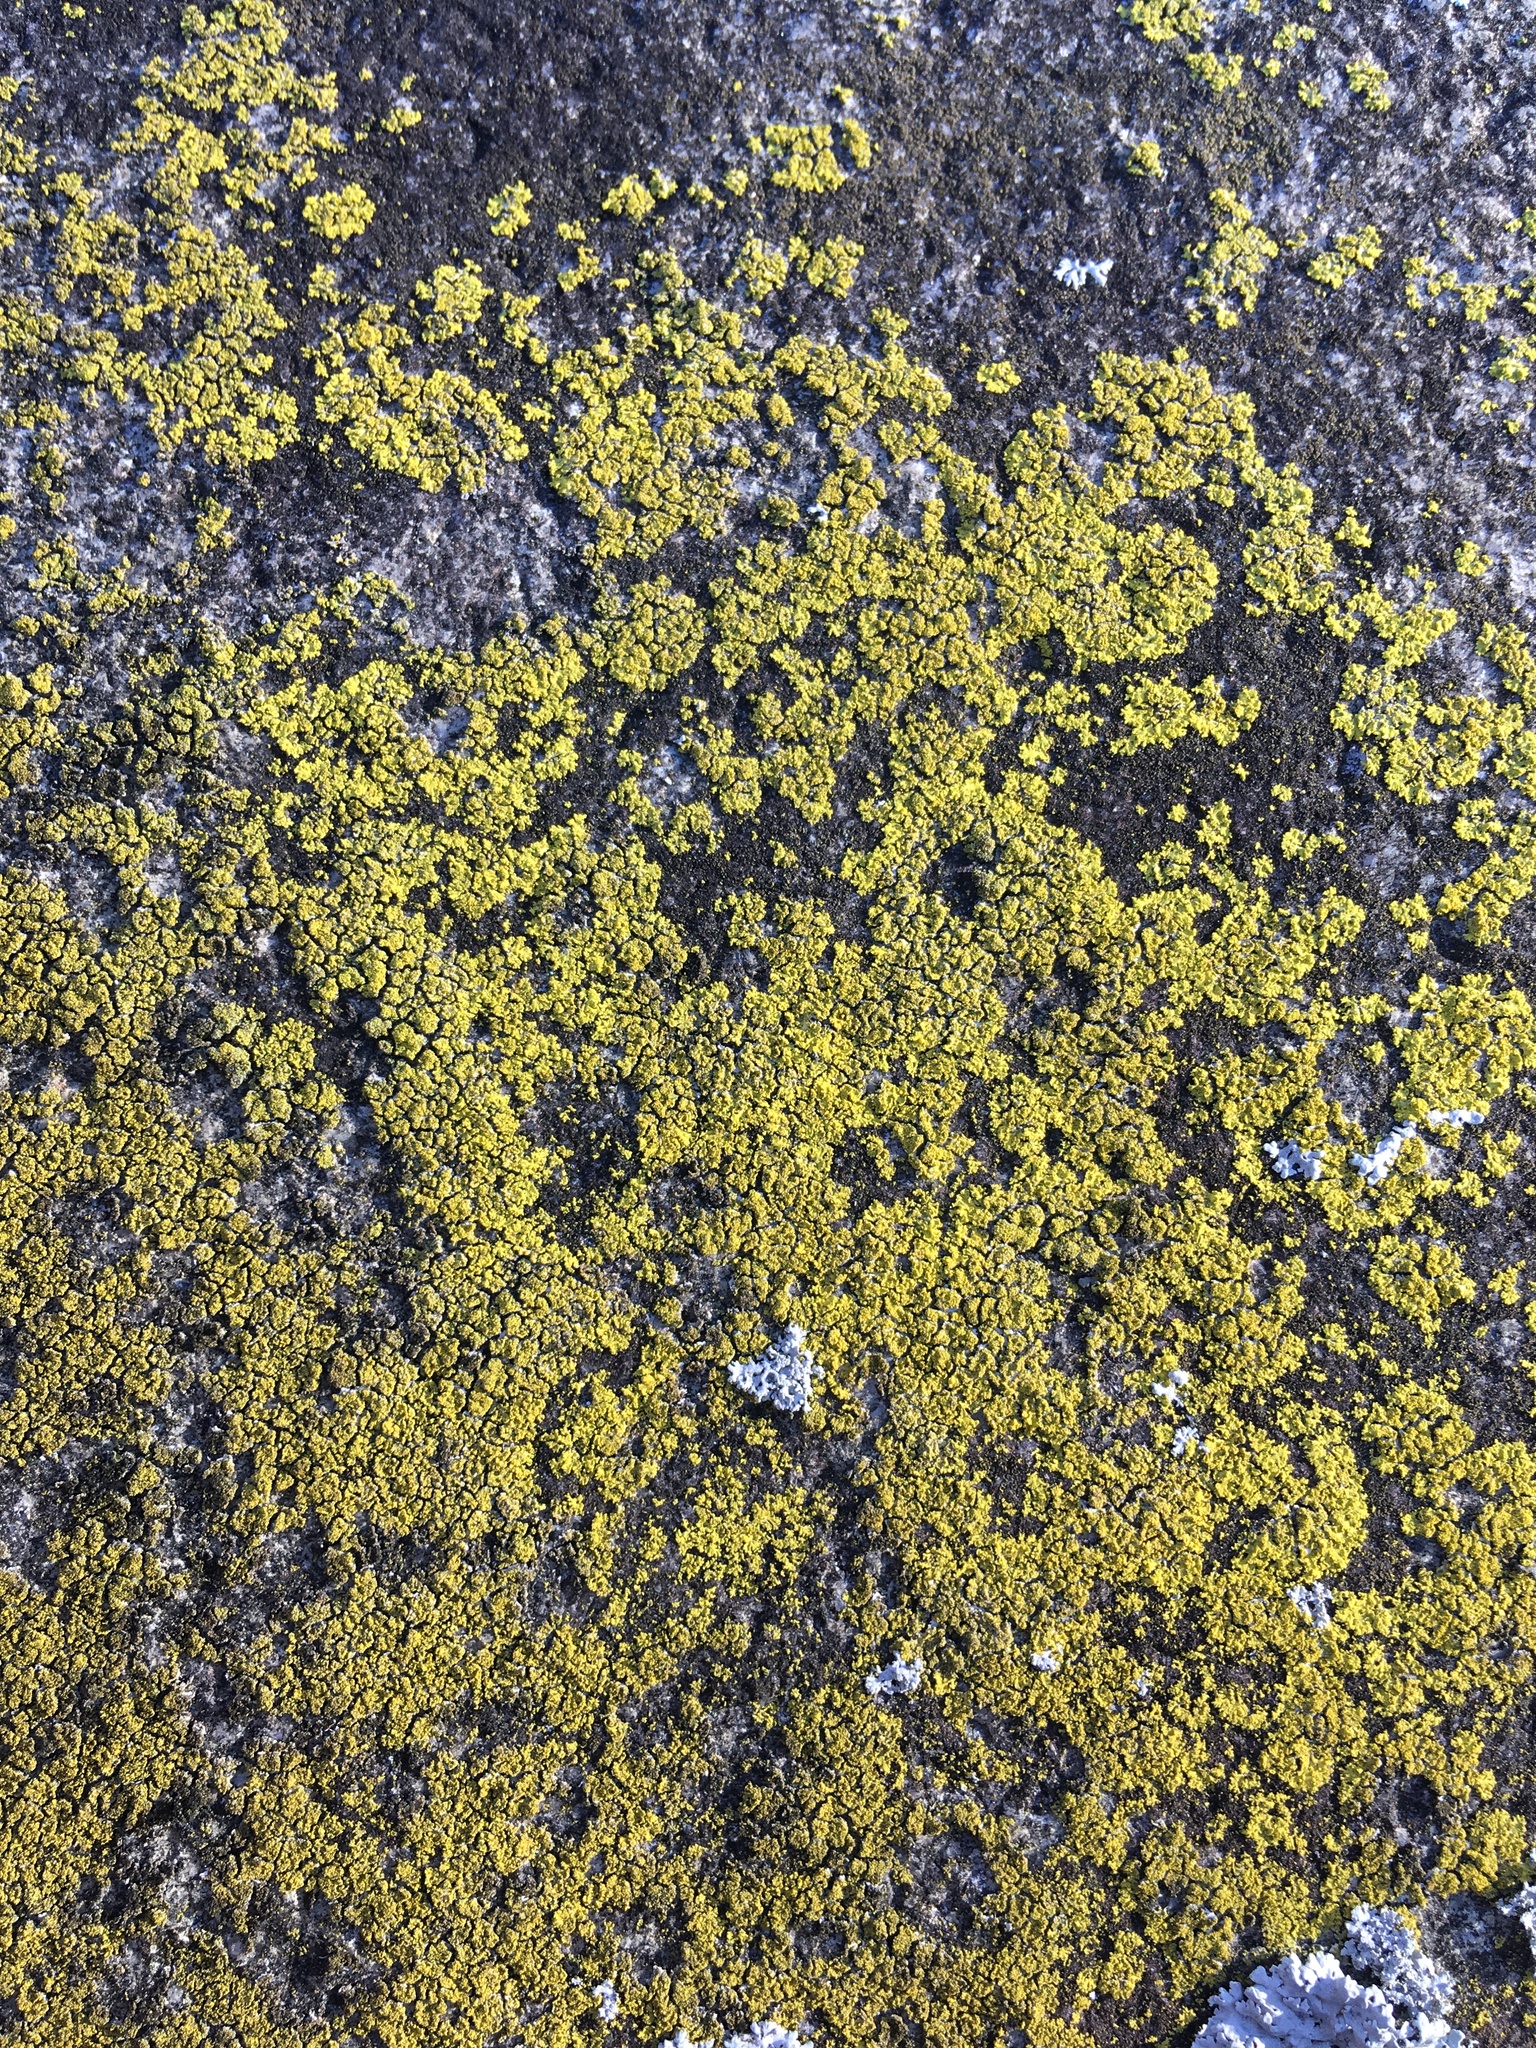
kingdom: Fungi
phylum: Ascomycota
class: Candelariomycetes
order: Candelariales
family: Candelariaceae
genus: Candelaria
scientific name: Candelaria concolor
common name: Candleflame lichen
